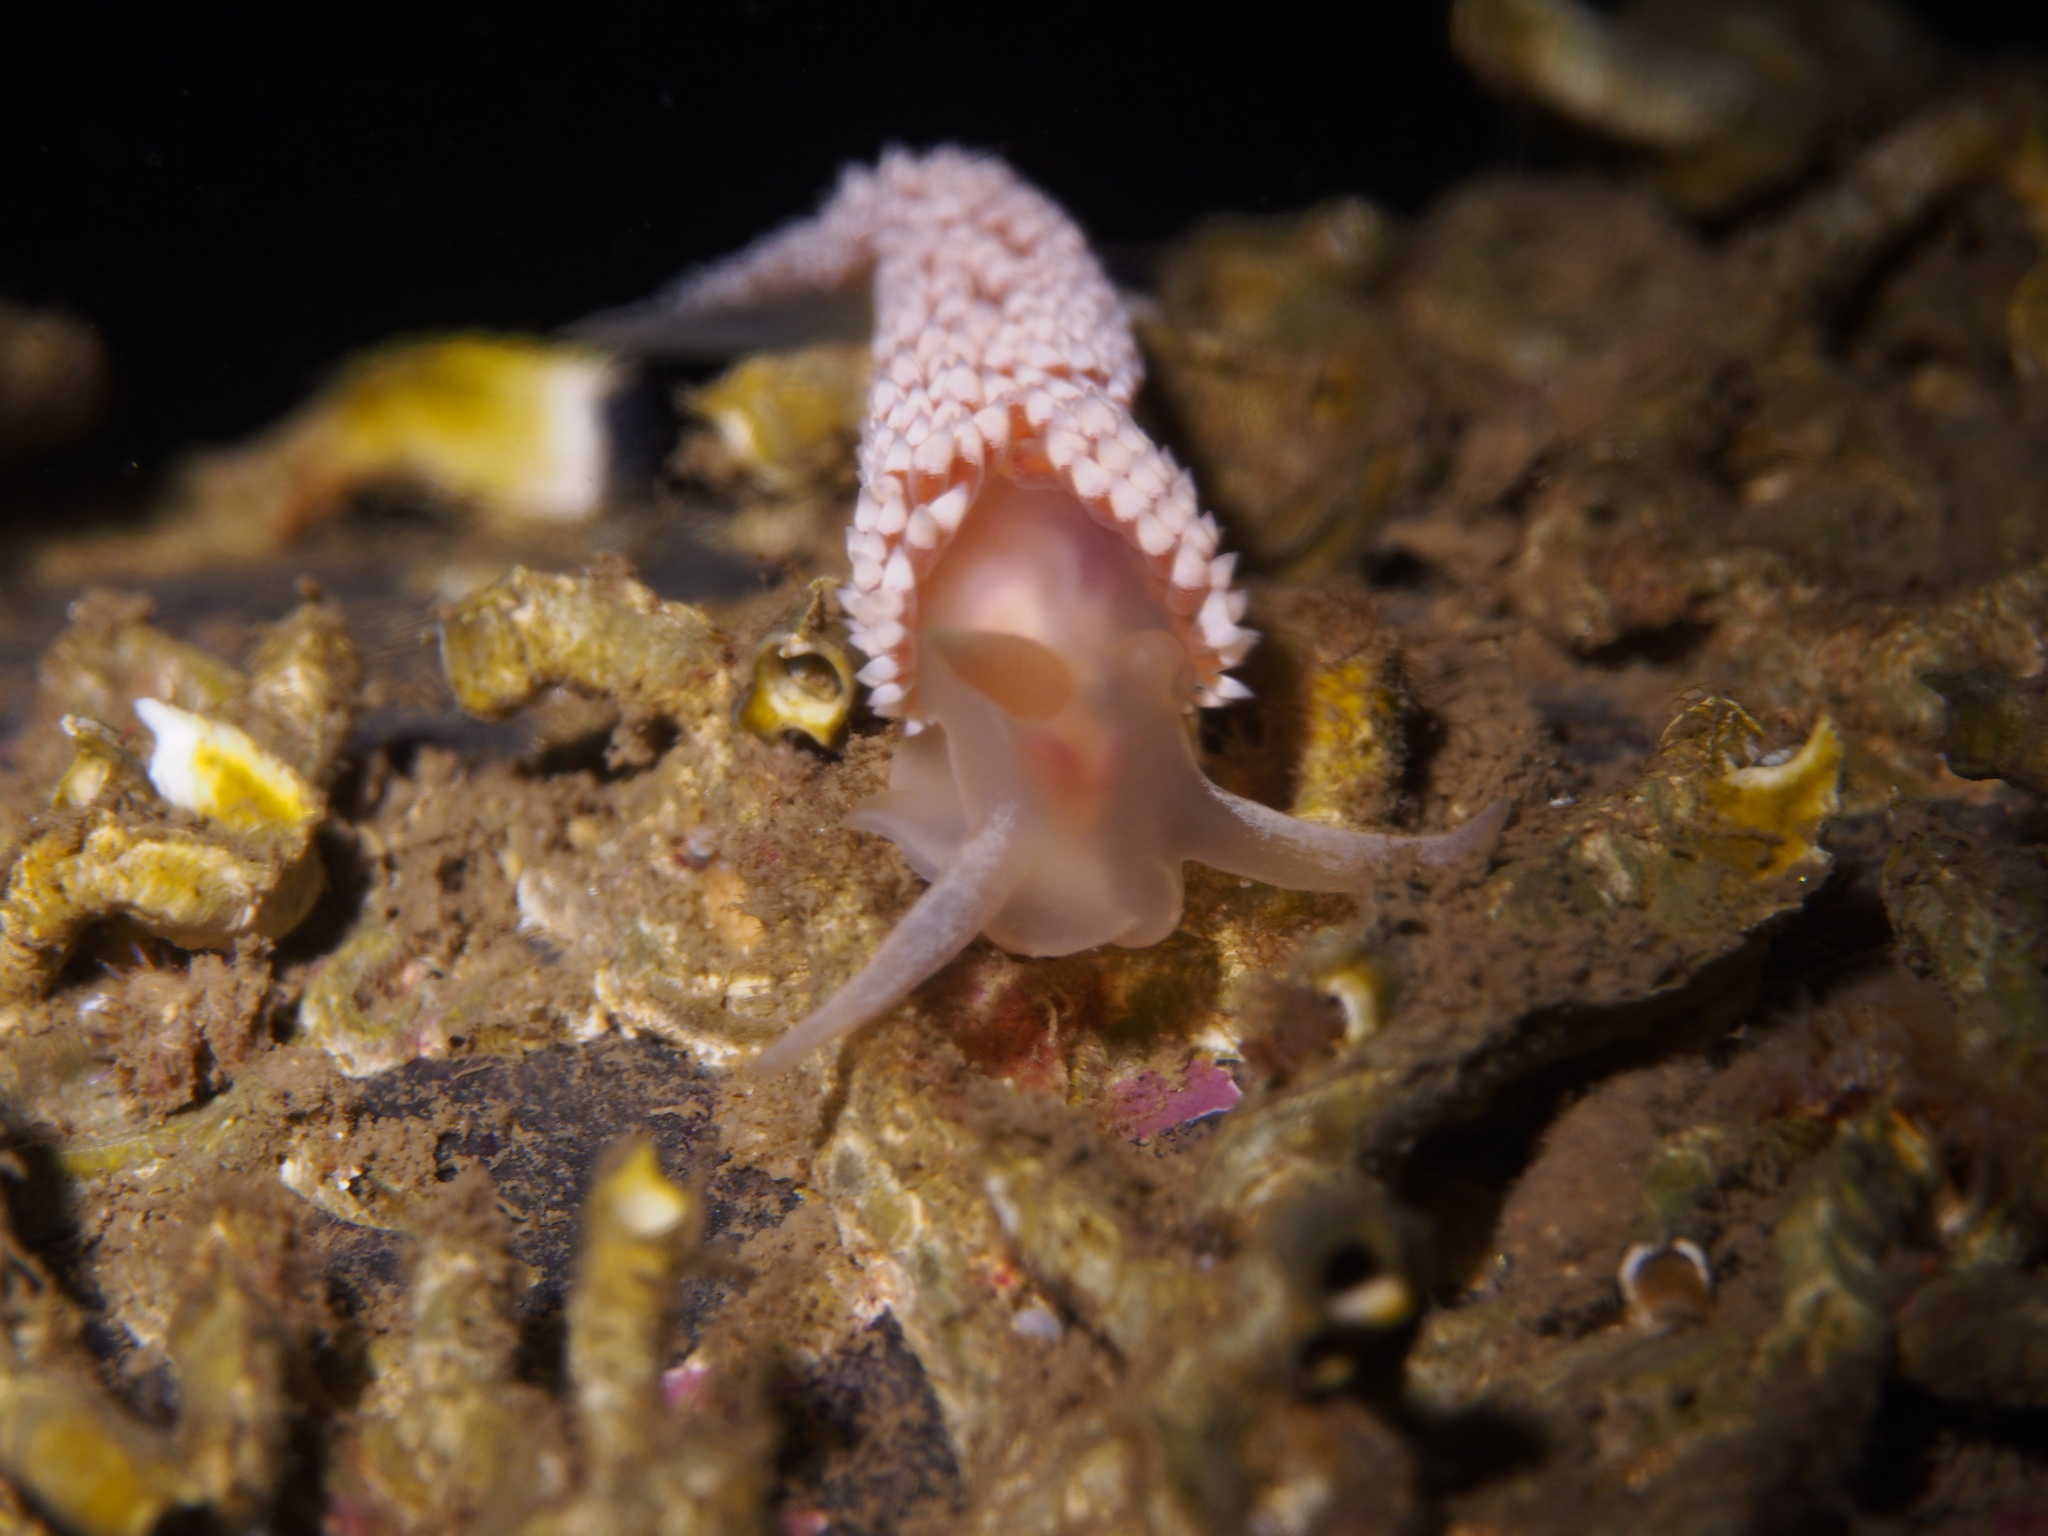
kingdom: Animalia
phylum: Mollusca
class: Gastropoda
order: Nudibranchia
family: Coryphellidae
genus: Coryphella
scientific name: Coryphella verrucosa
